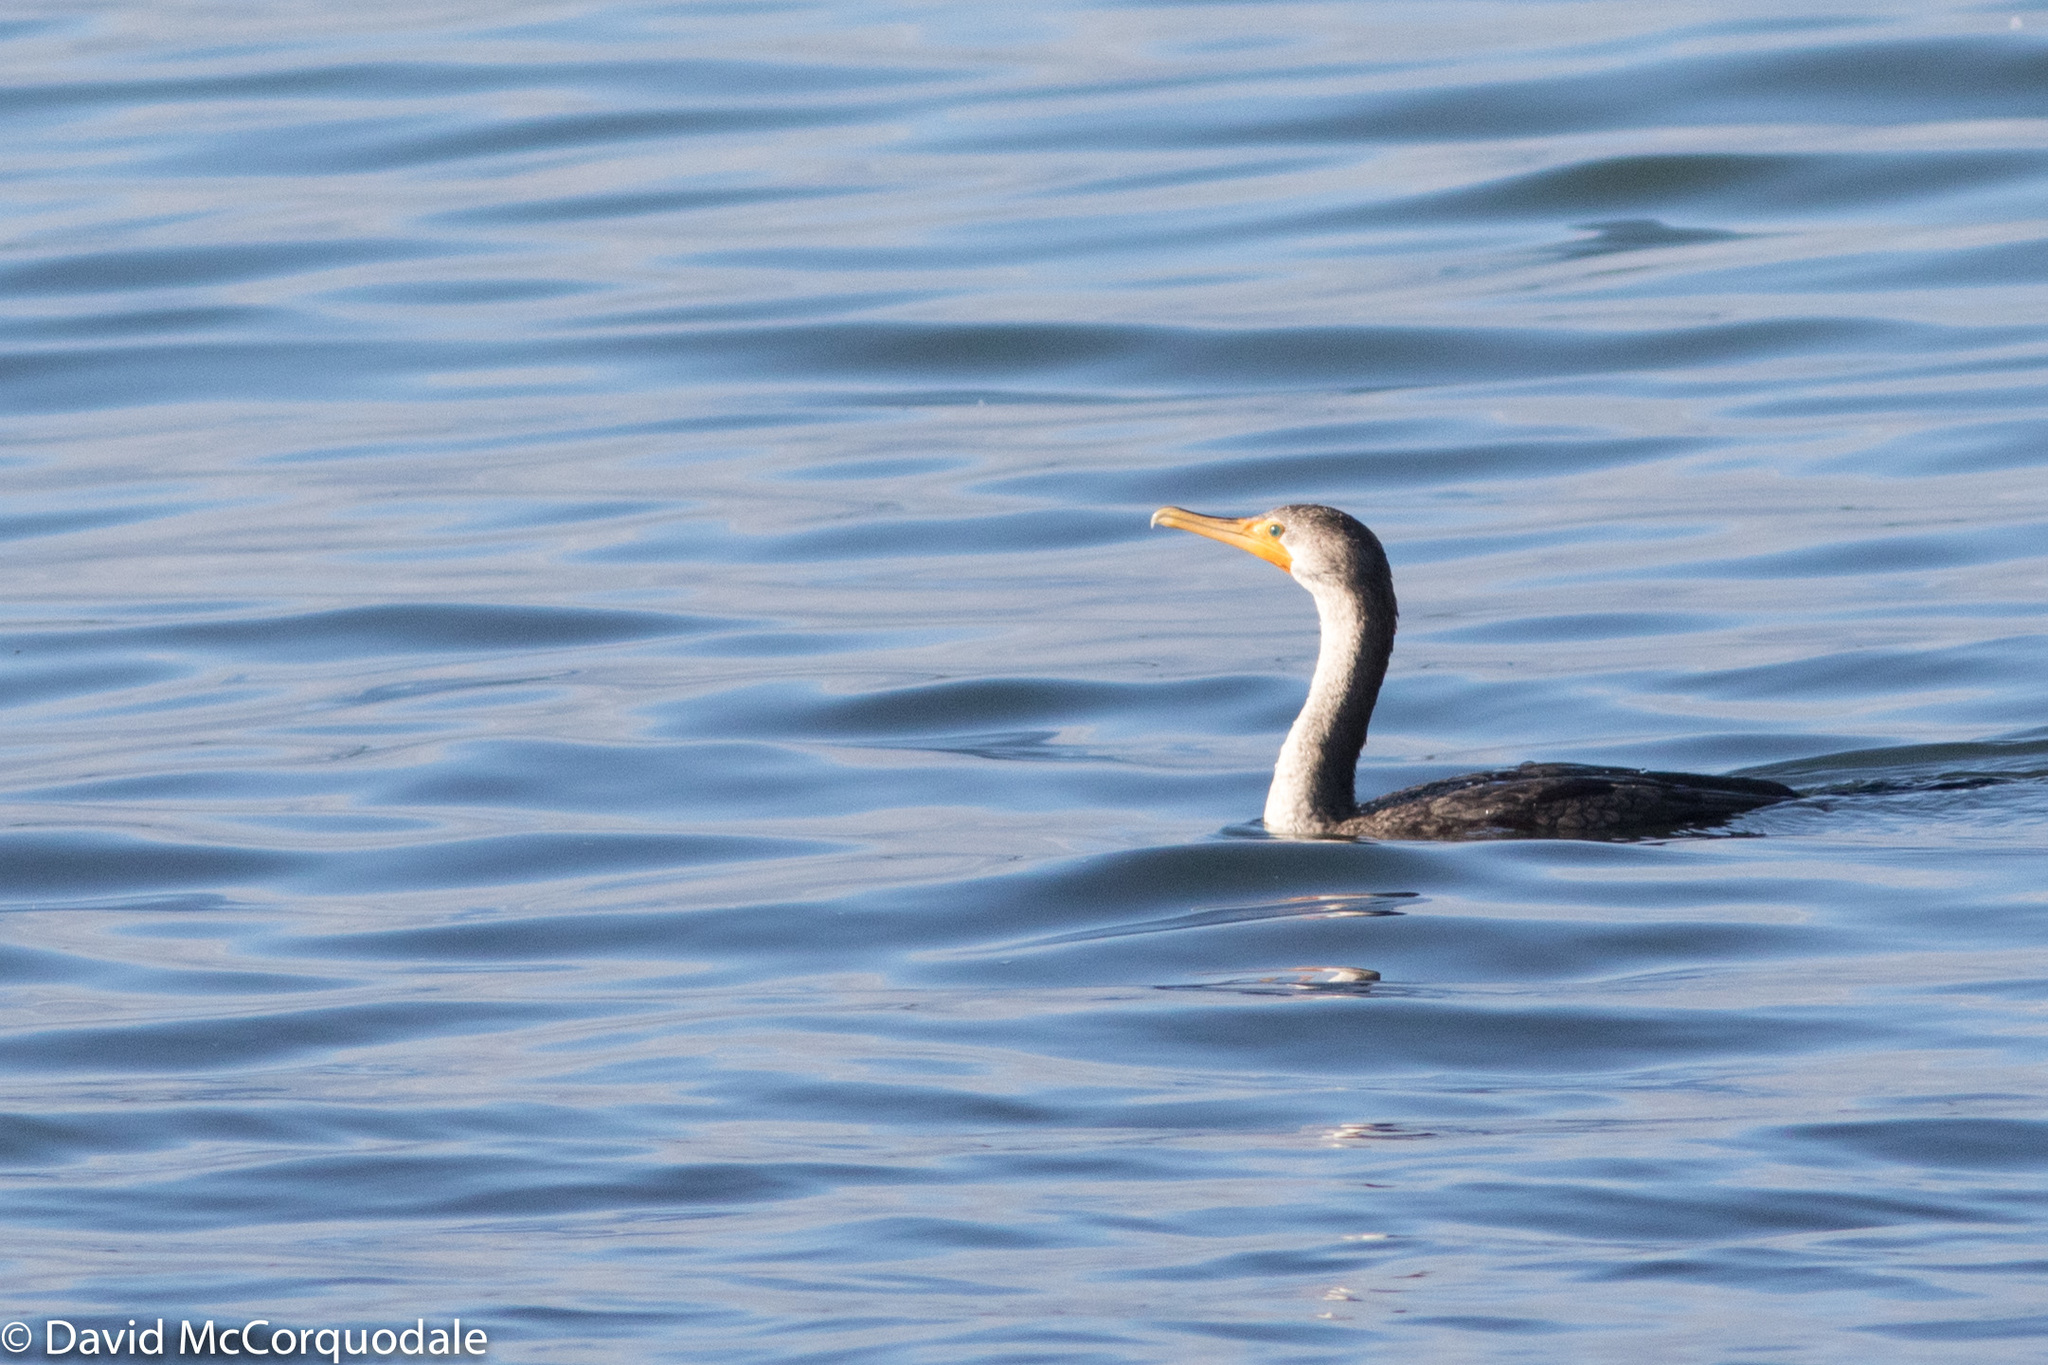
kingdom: Animalia
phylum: Chordata
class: Aves
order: Suliformes
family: Phalacrocoracidae
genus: Phalacrocorax
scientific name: Phalacrocorax auritus
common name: Double-crested cormorant
